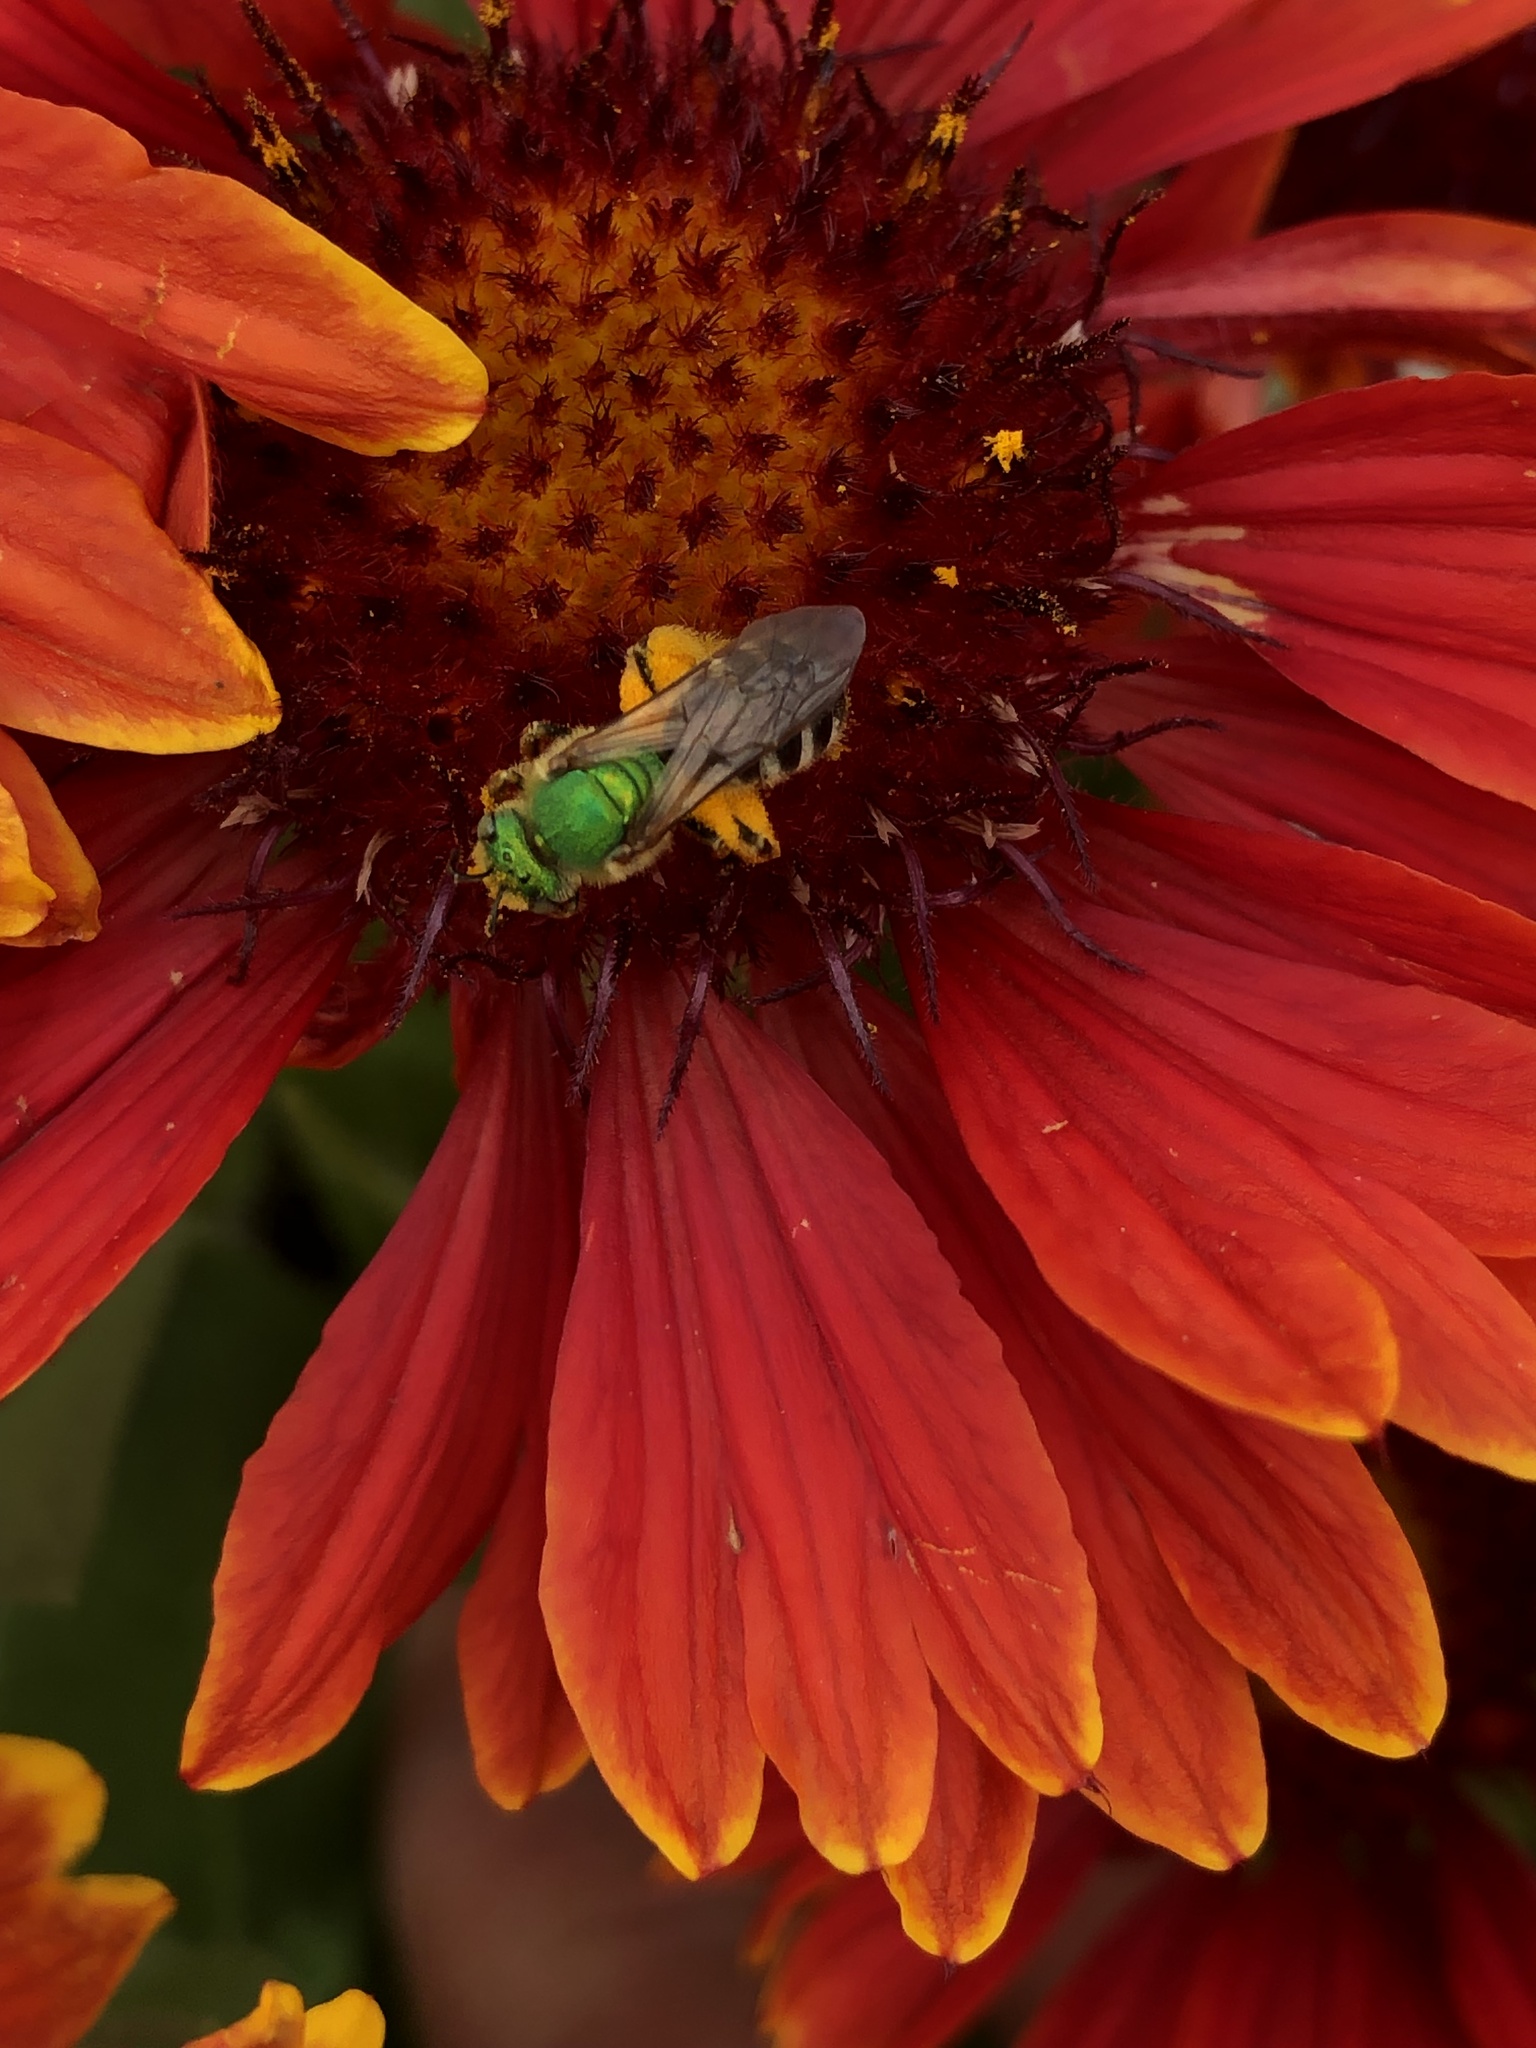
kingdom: Animalia
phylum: Arthropoda
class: Insecta
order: Hymenoptera
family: Halictidae
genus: Agapostemon
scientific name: Agapostemon virescens
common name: Bicolored striped sweat bee
